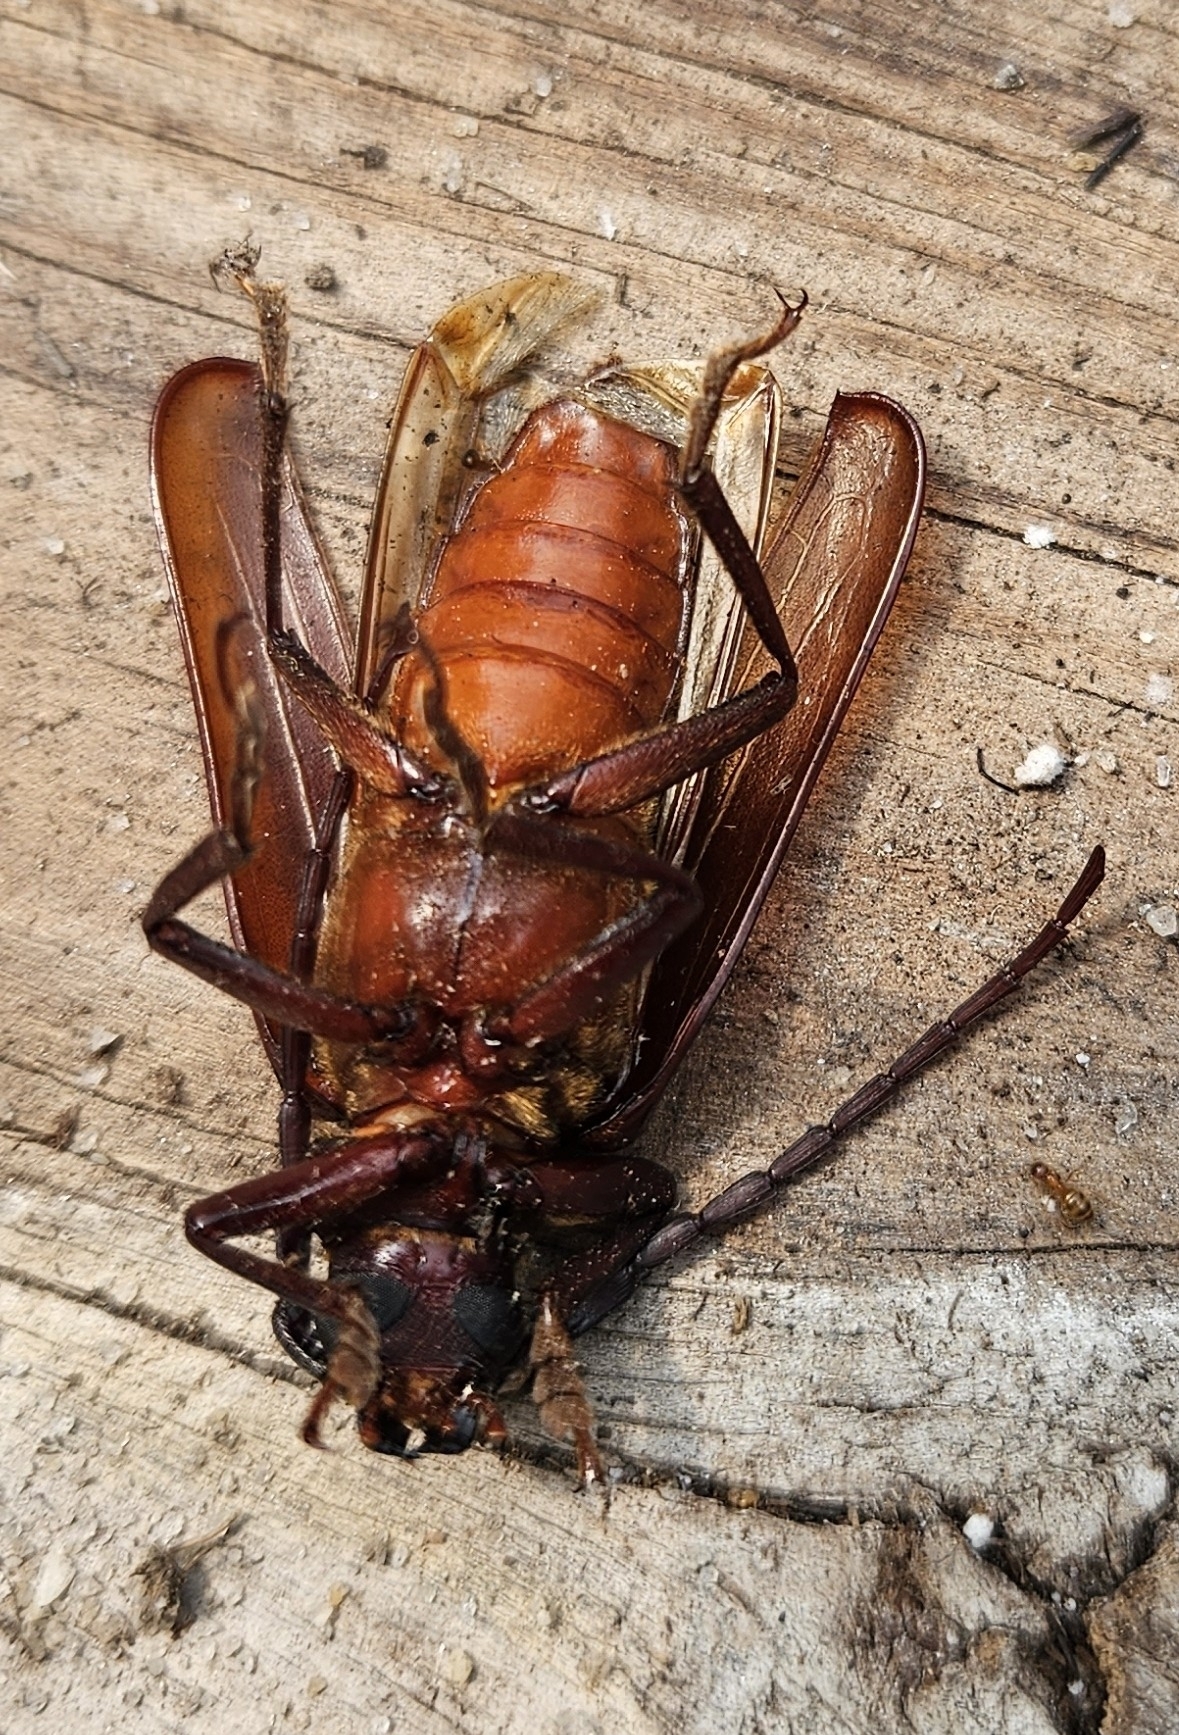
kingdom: Animalia
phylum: Arthropoda
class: Insecta
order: Coleoptera
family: Cerambycidae
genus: Orthosoma
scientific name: Orthosoma brunneum
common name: Brown prionid beetle
